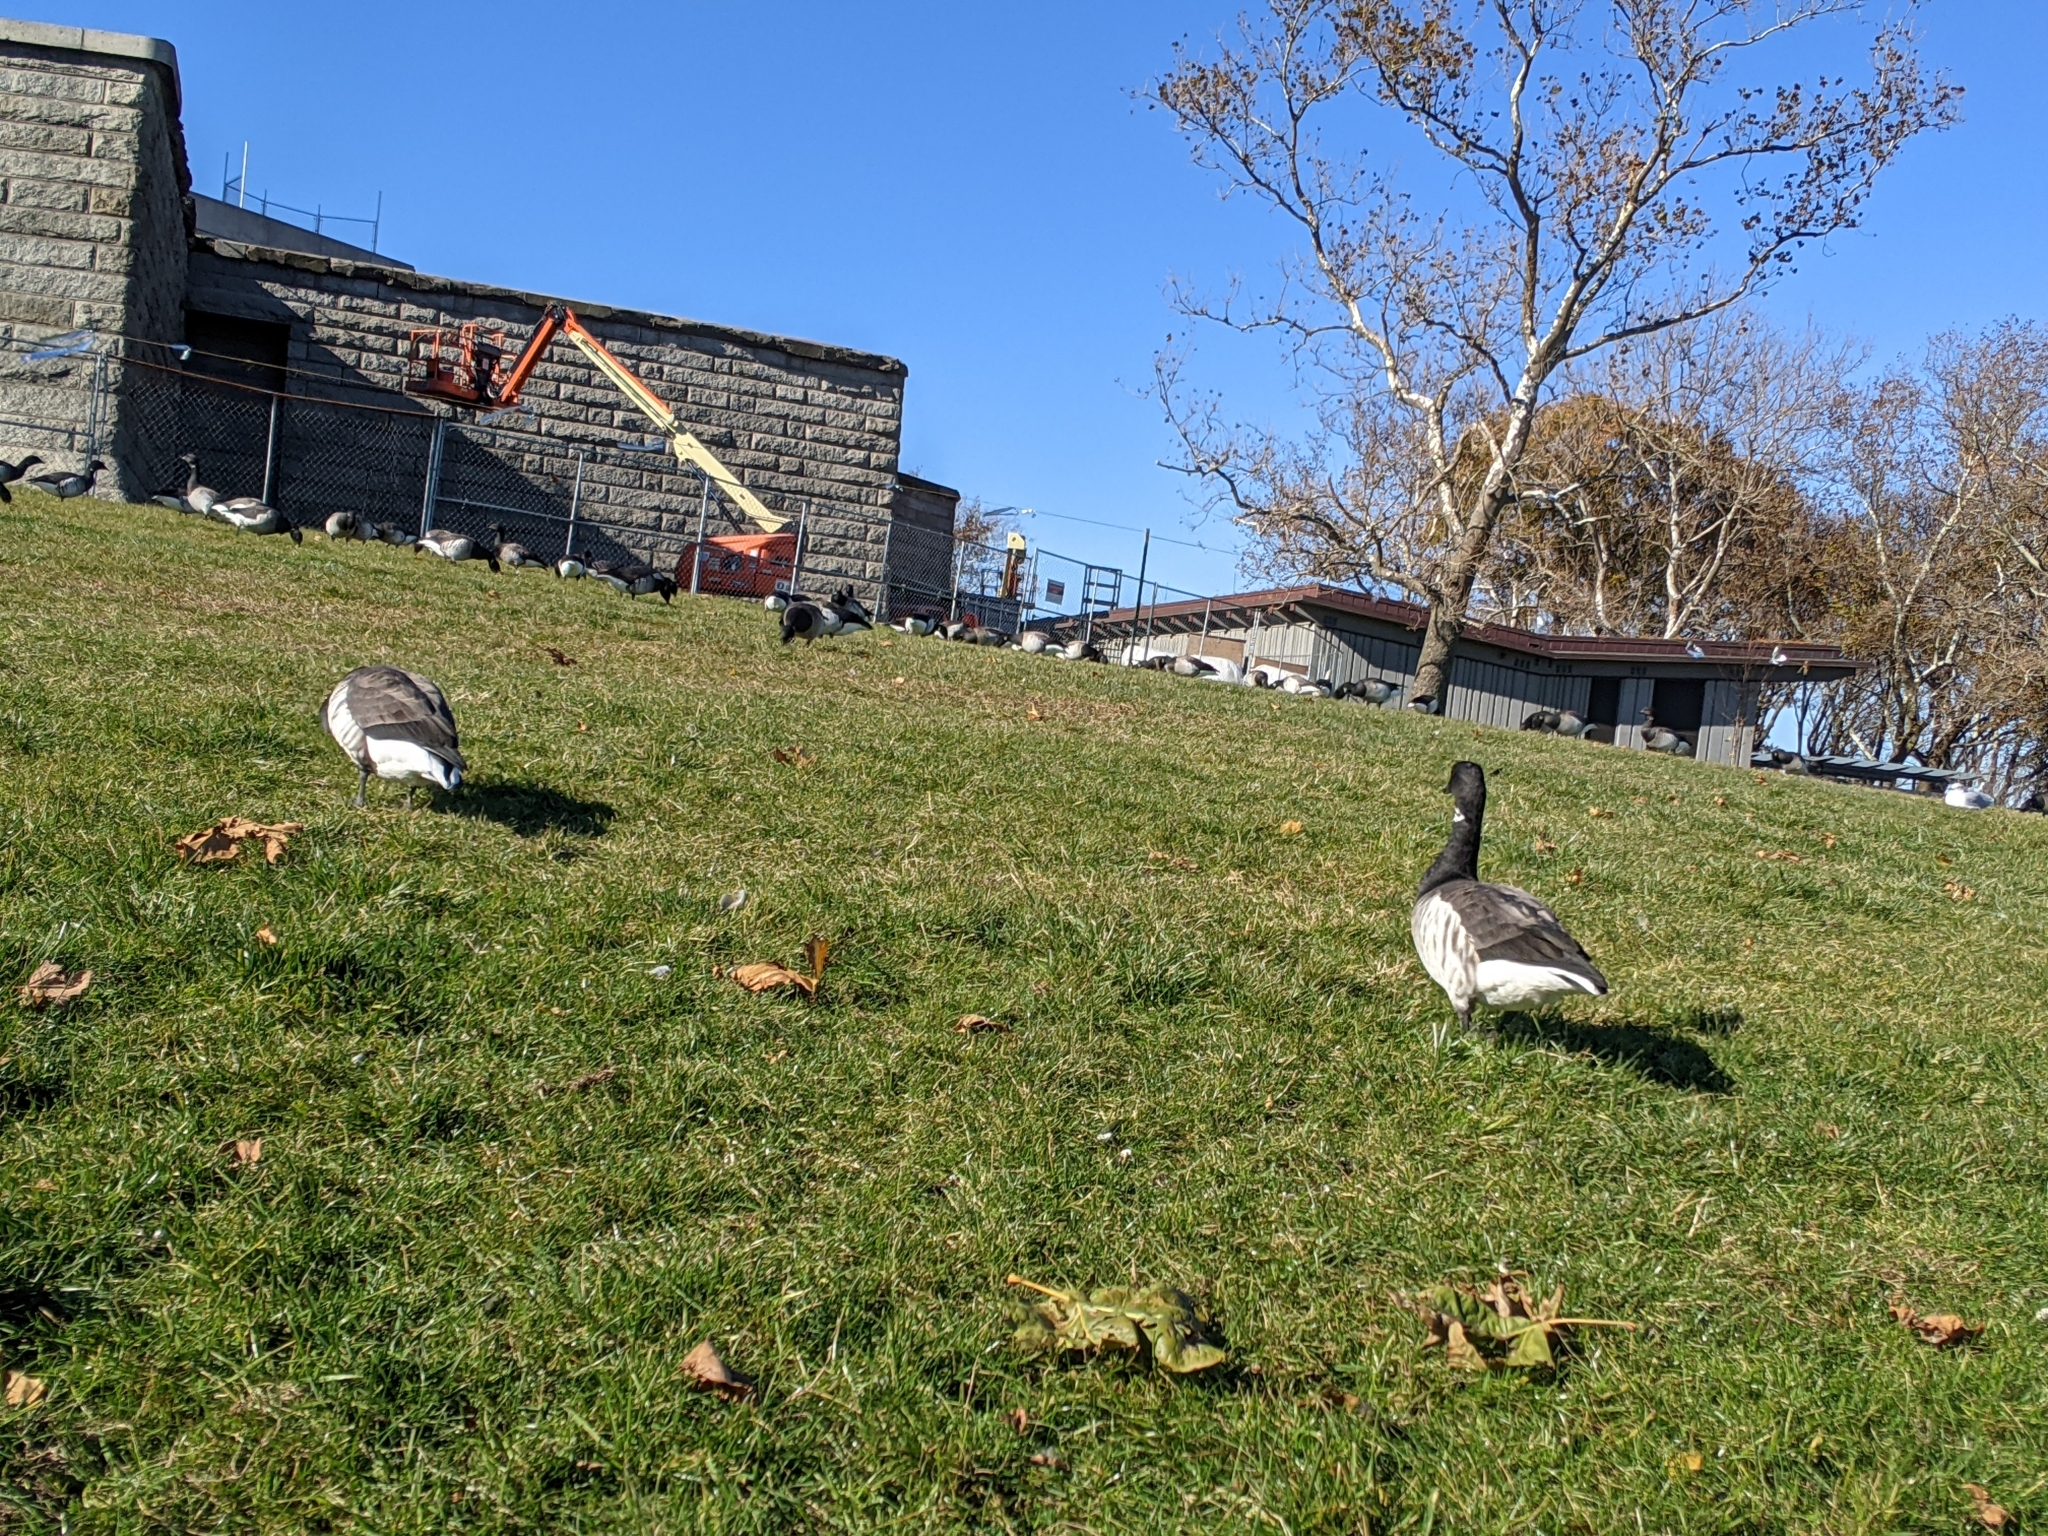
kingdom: Animalia
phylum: Chordata
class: Aves
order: Anseriformes
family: Anatidae
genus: Branta
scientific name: Branta bernicla
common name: Brant goose
